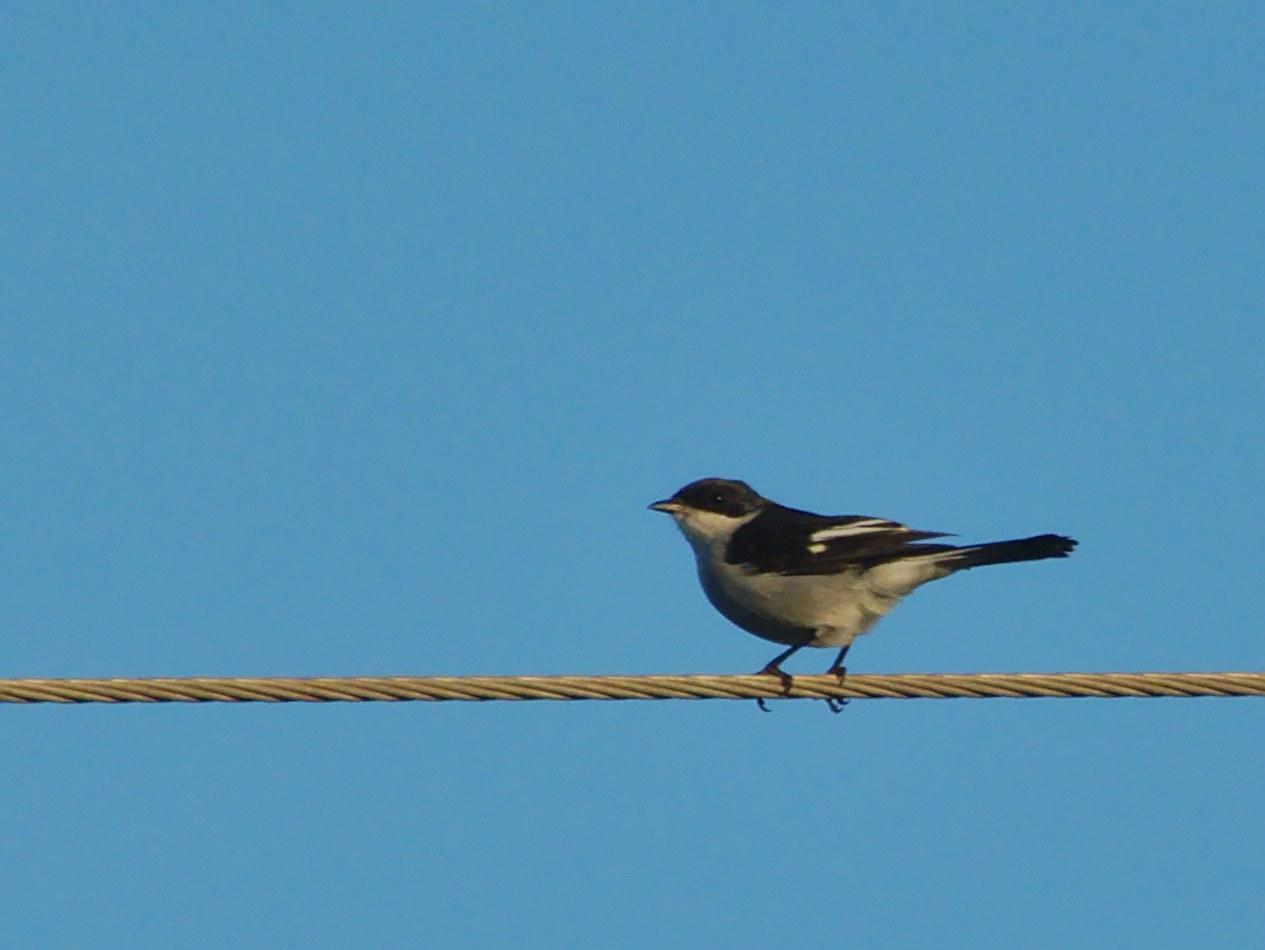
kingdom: Animalia
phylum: Chordata
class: Aves
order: Passeriformes
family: Muscicapidae
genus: Sigelus
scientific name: Sigelus silens
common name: Fiscal flycatcher
